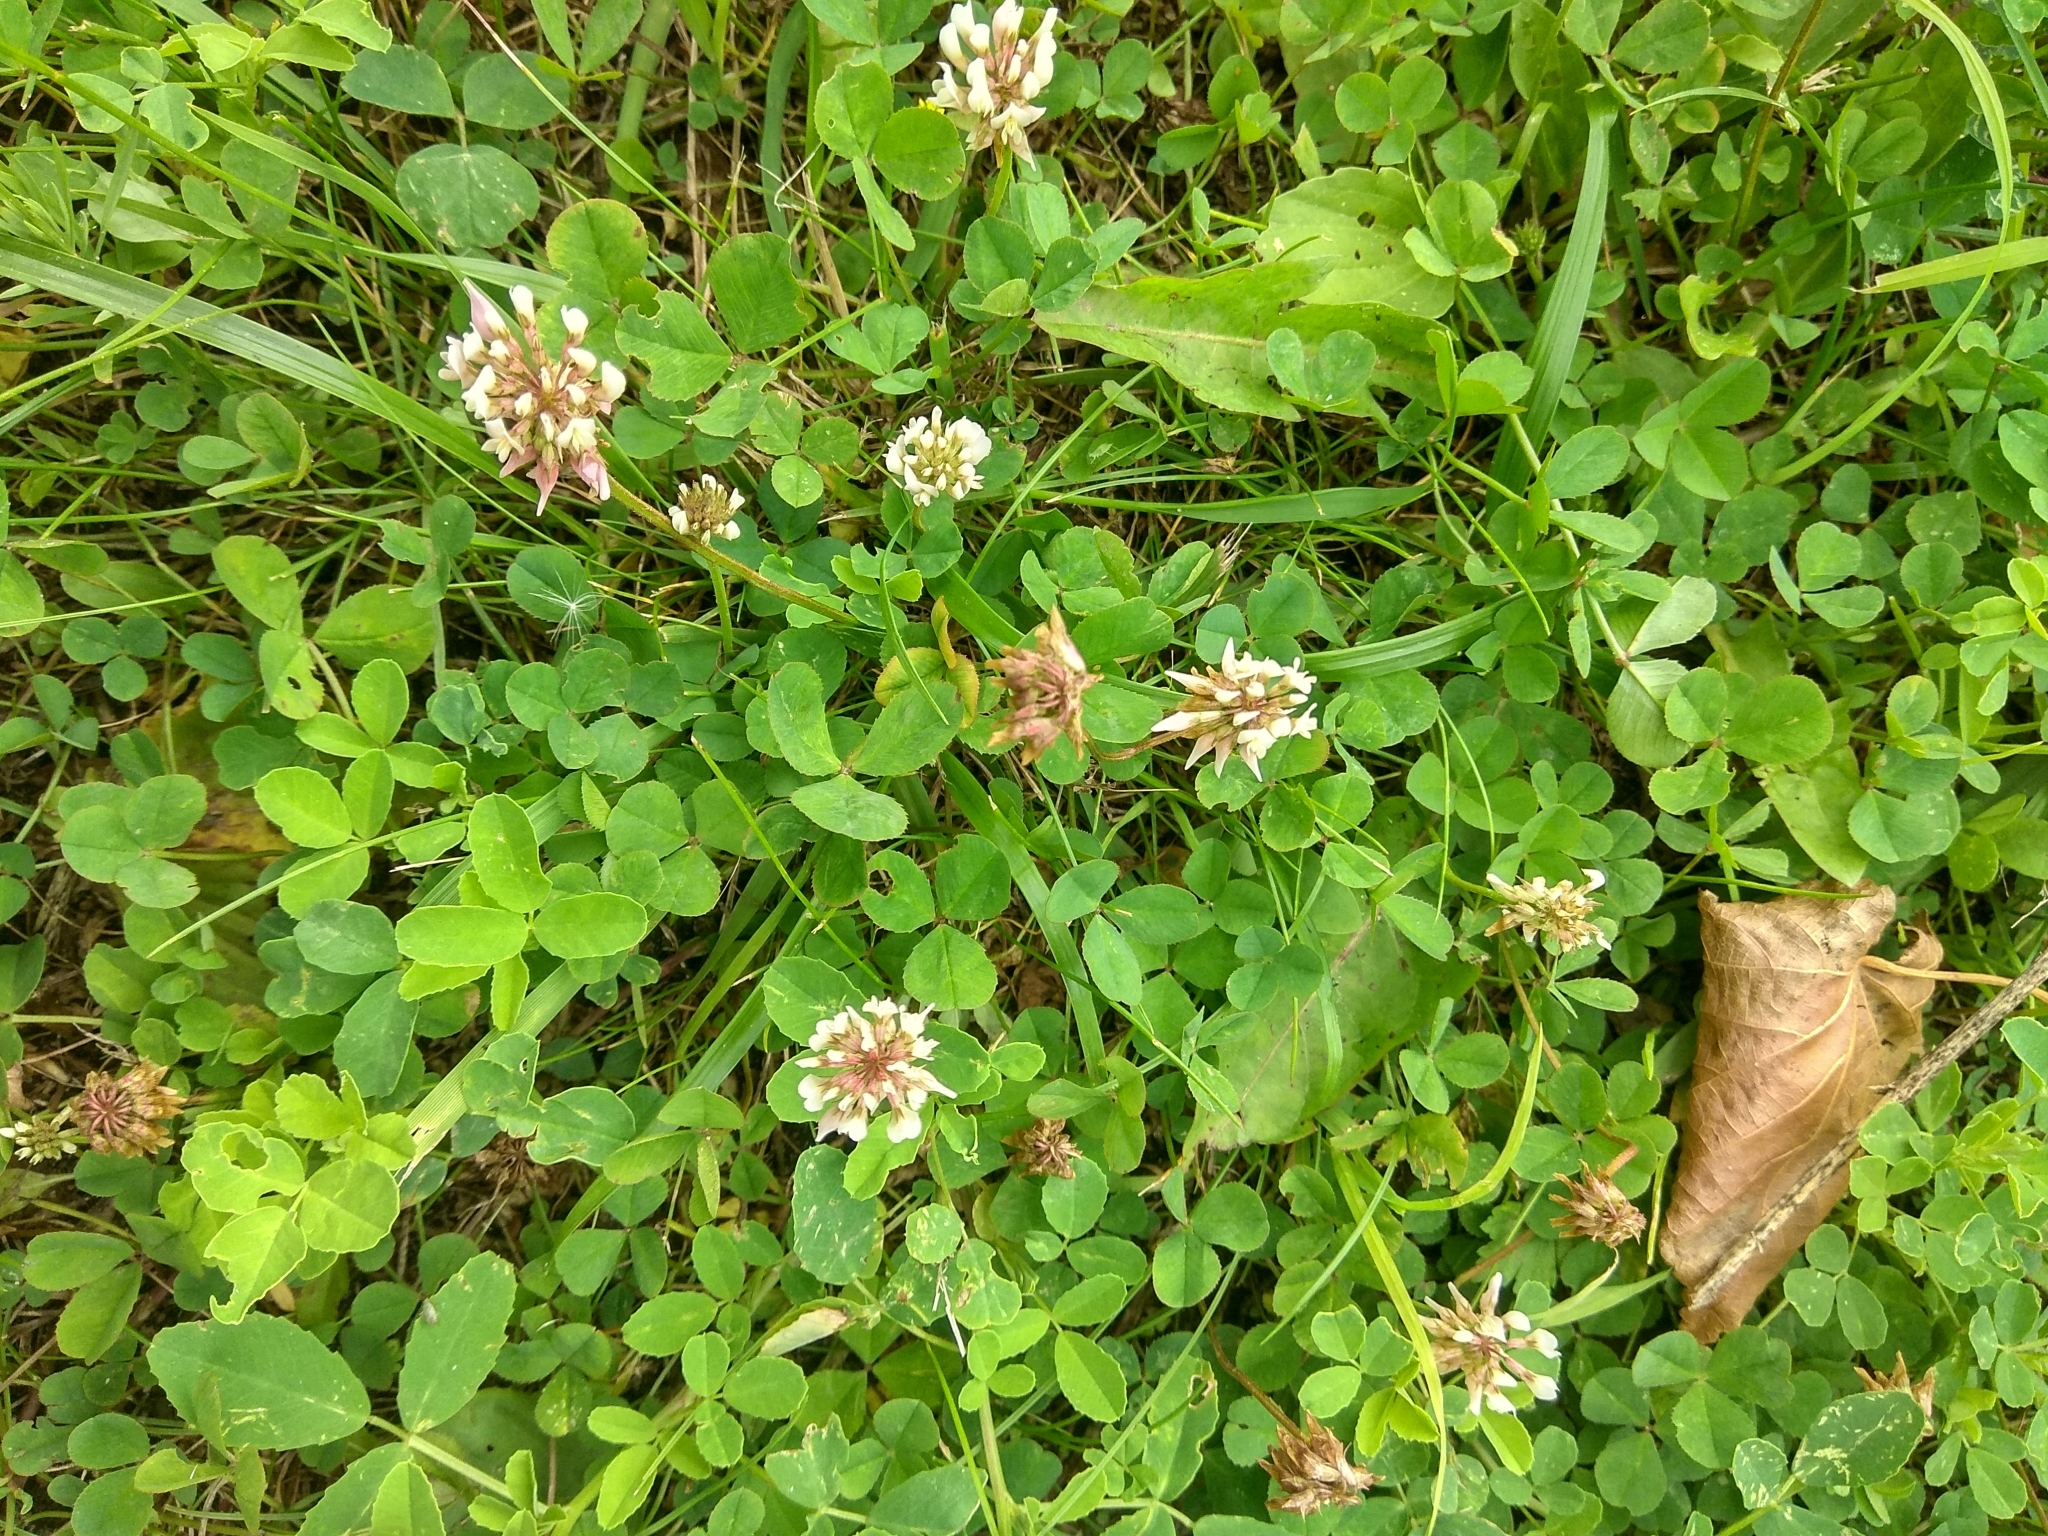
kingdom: Plantae
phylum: Tracheophyta
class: Magnoliopsida
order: Fabales
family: Fabaceae
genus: Trifolium
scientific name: Trifolium repens
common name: White clover
